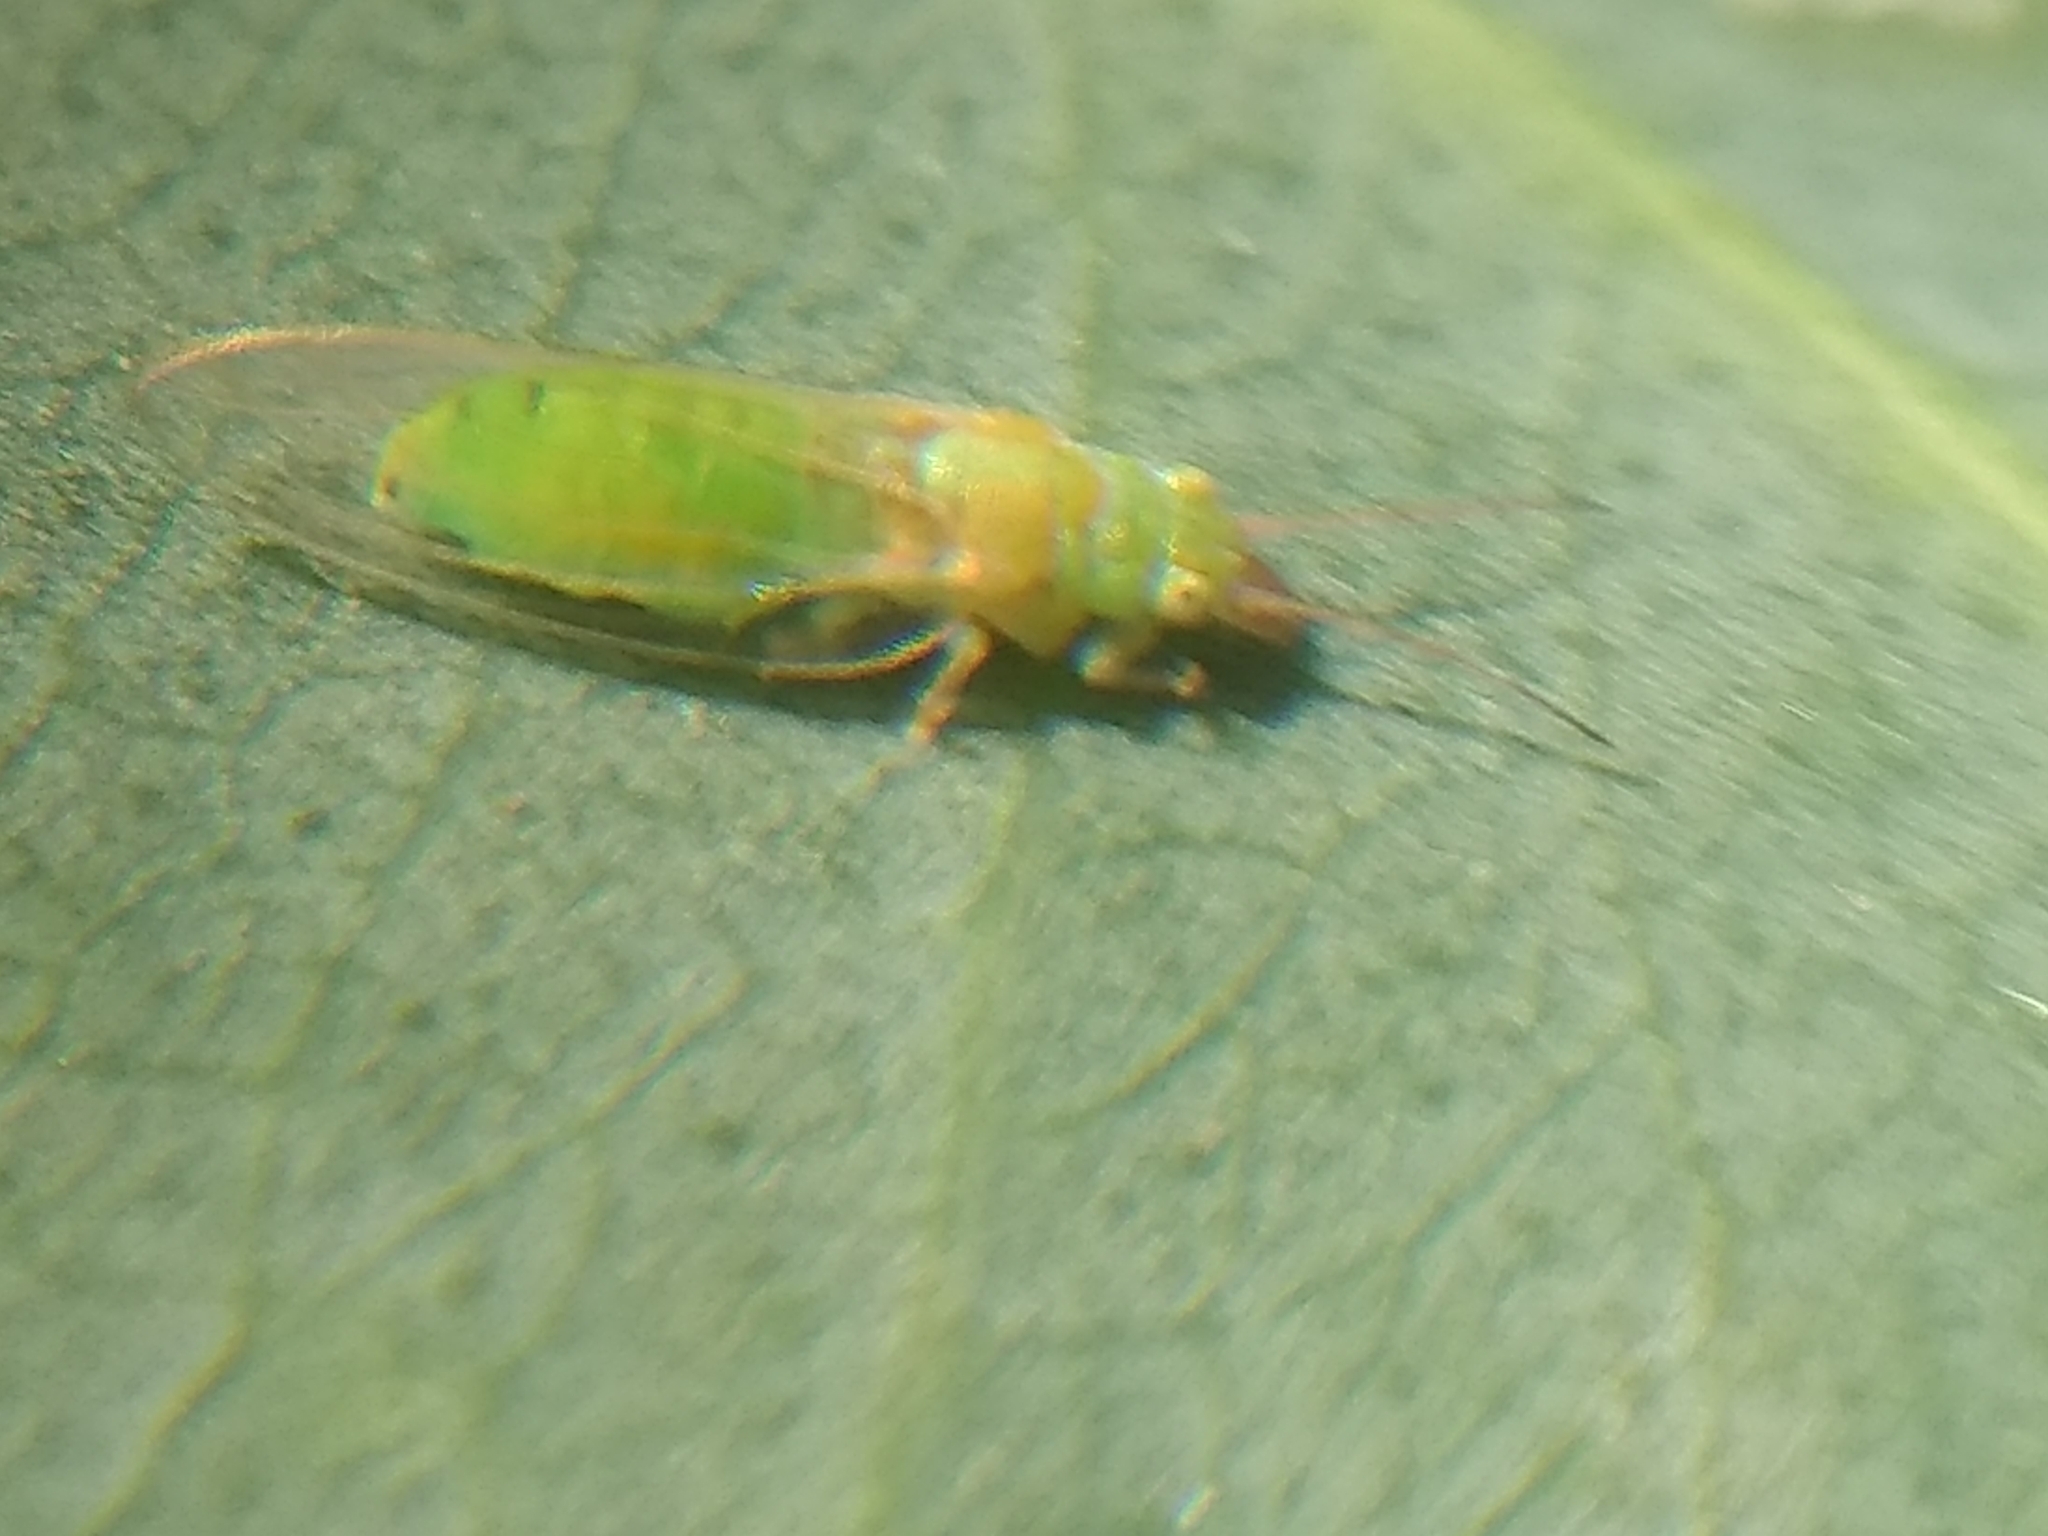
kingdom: Animalia
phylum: Arthropoda
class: Insecta
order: Hemiptera
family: Aphalaridae
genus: Glycaspis
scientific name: Glycaspis brimblecombei
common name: Red gum lerp psyllid
